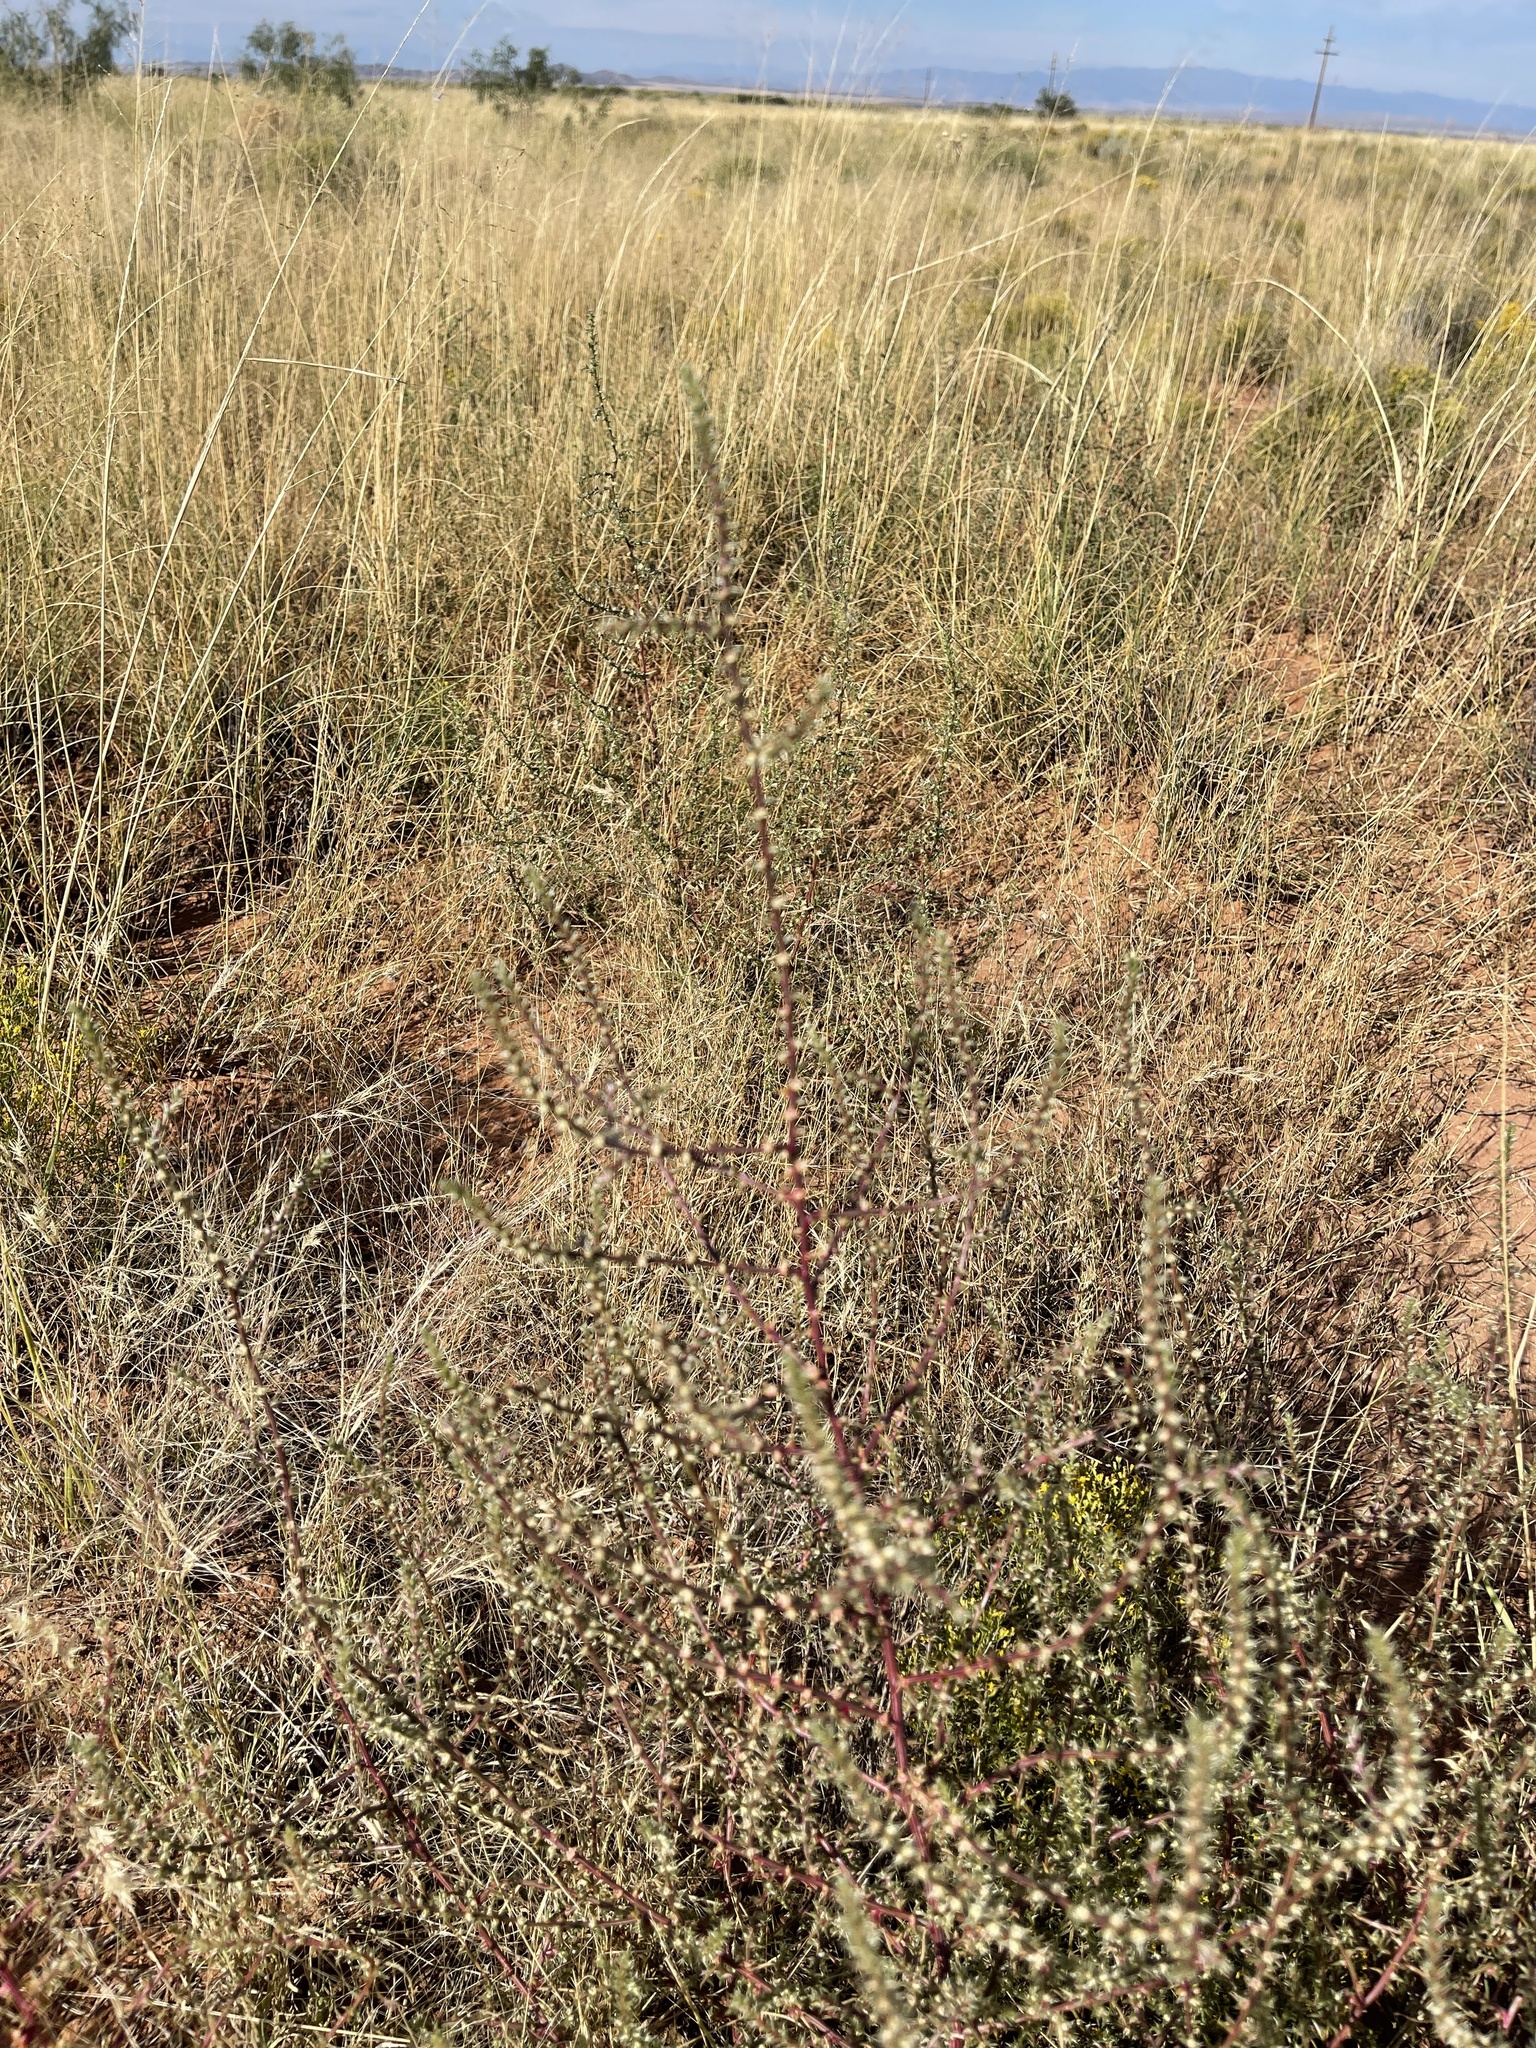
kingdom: Plantae
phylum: Tracheophyta
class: Magnoliopsida
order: Caryophyllales
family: Amaranthaceae
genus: Salsola
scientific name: Salsola tragus
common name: Prickly russian thistle
